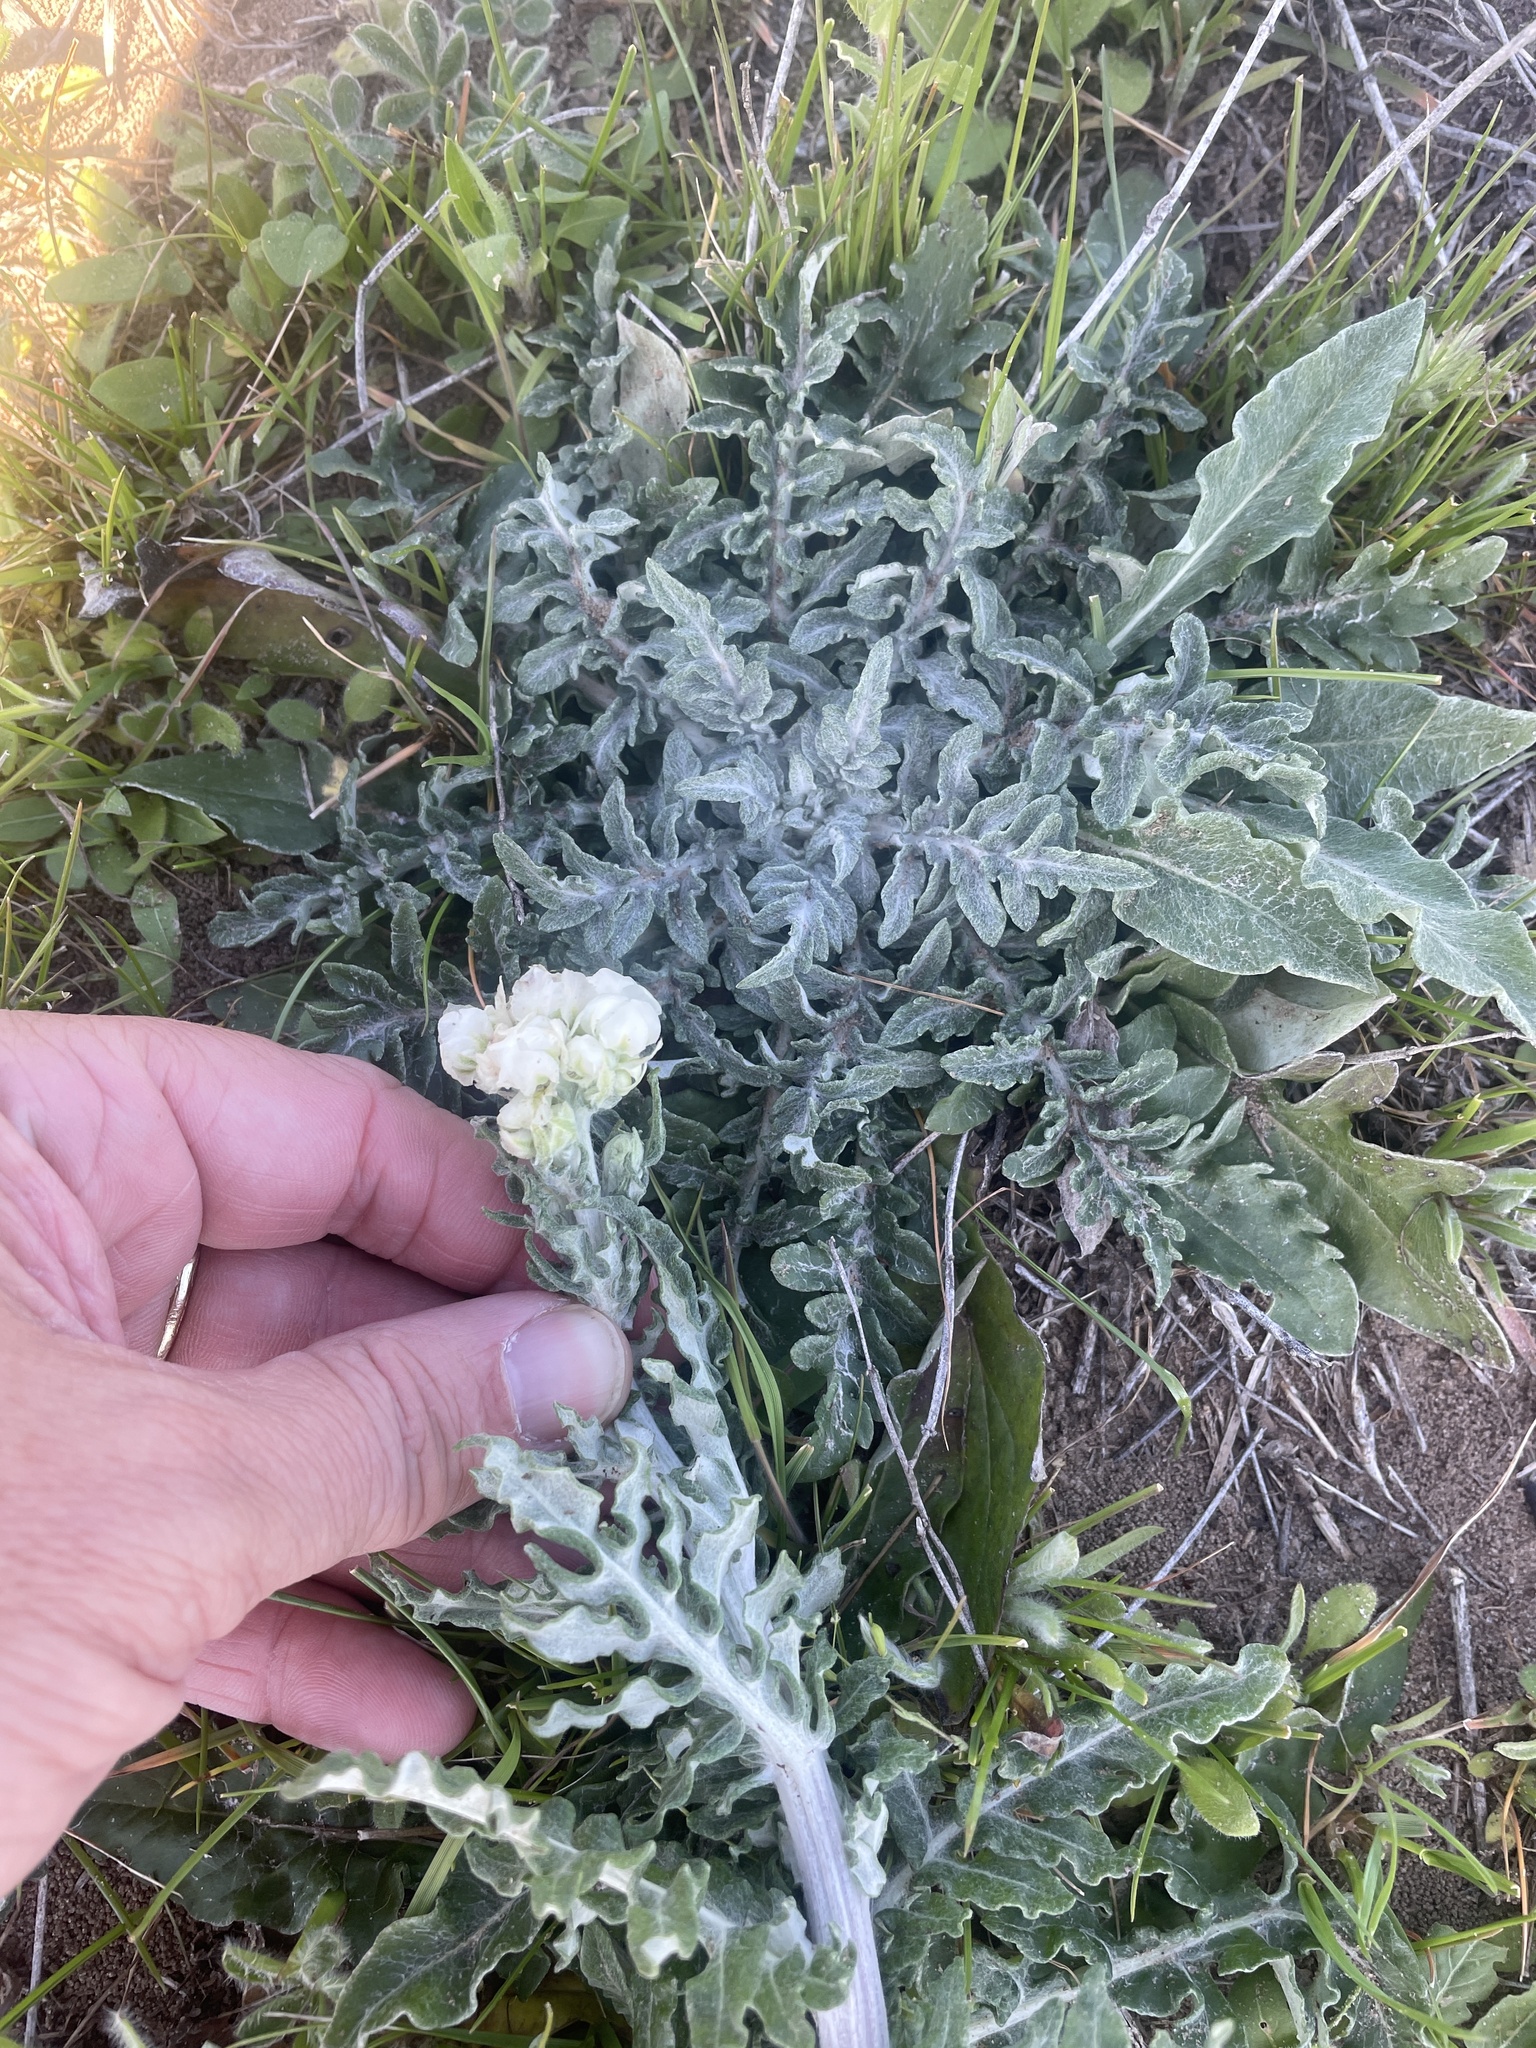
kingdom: Plantae
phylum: Tracheophyta
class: Magnoliopsida
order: Asterales
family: Asteraceae
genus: Hymenopappus
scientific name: Hymenopappus artemisiifolius
